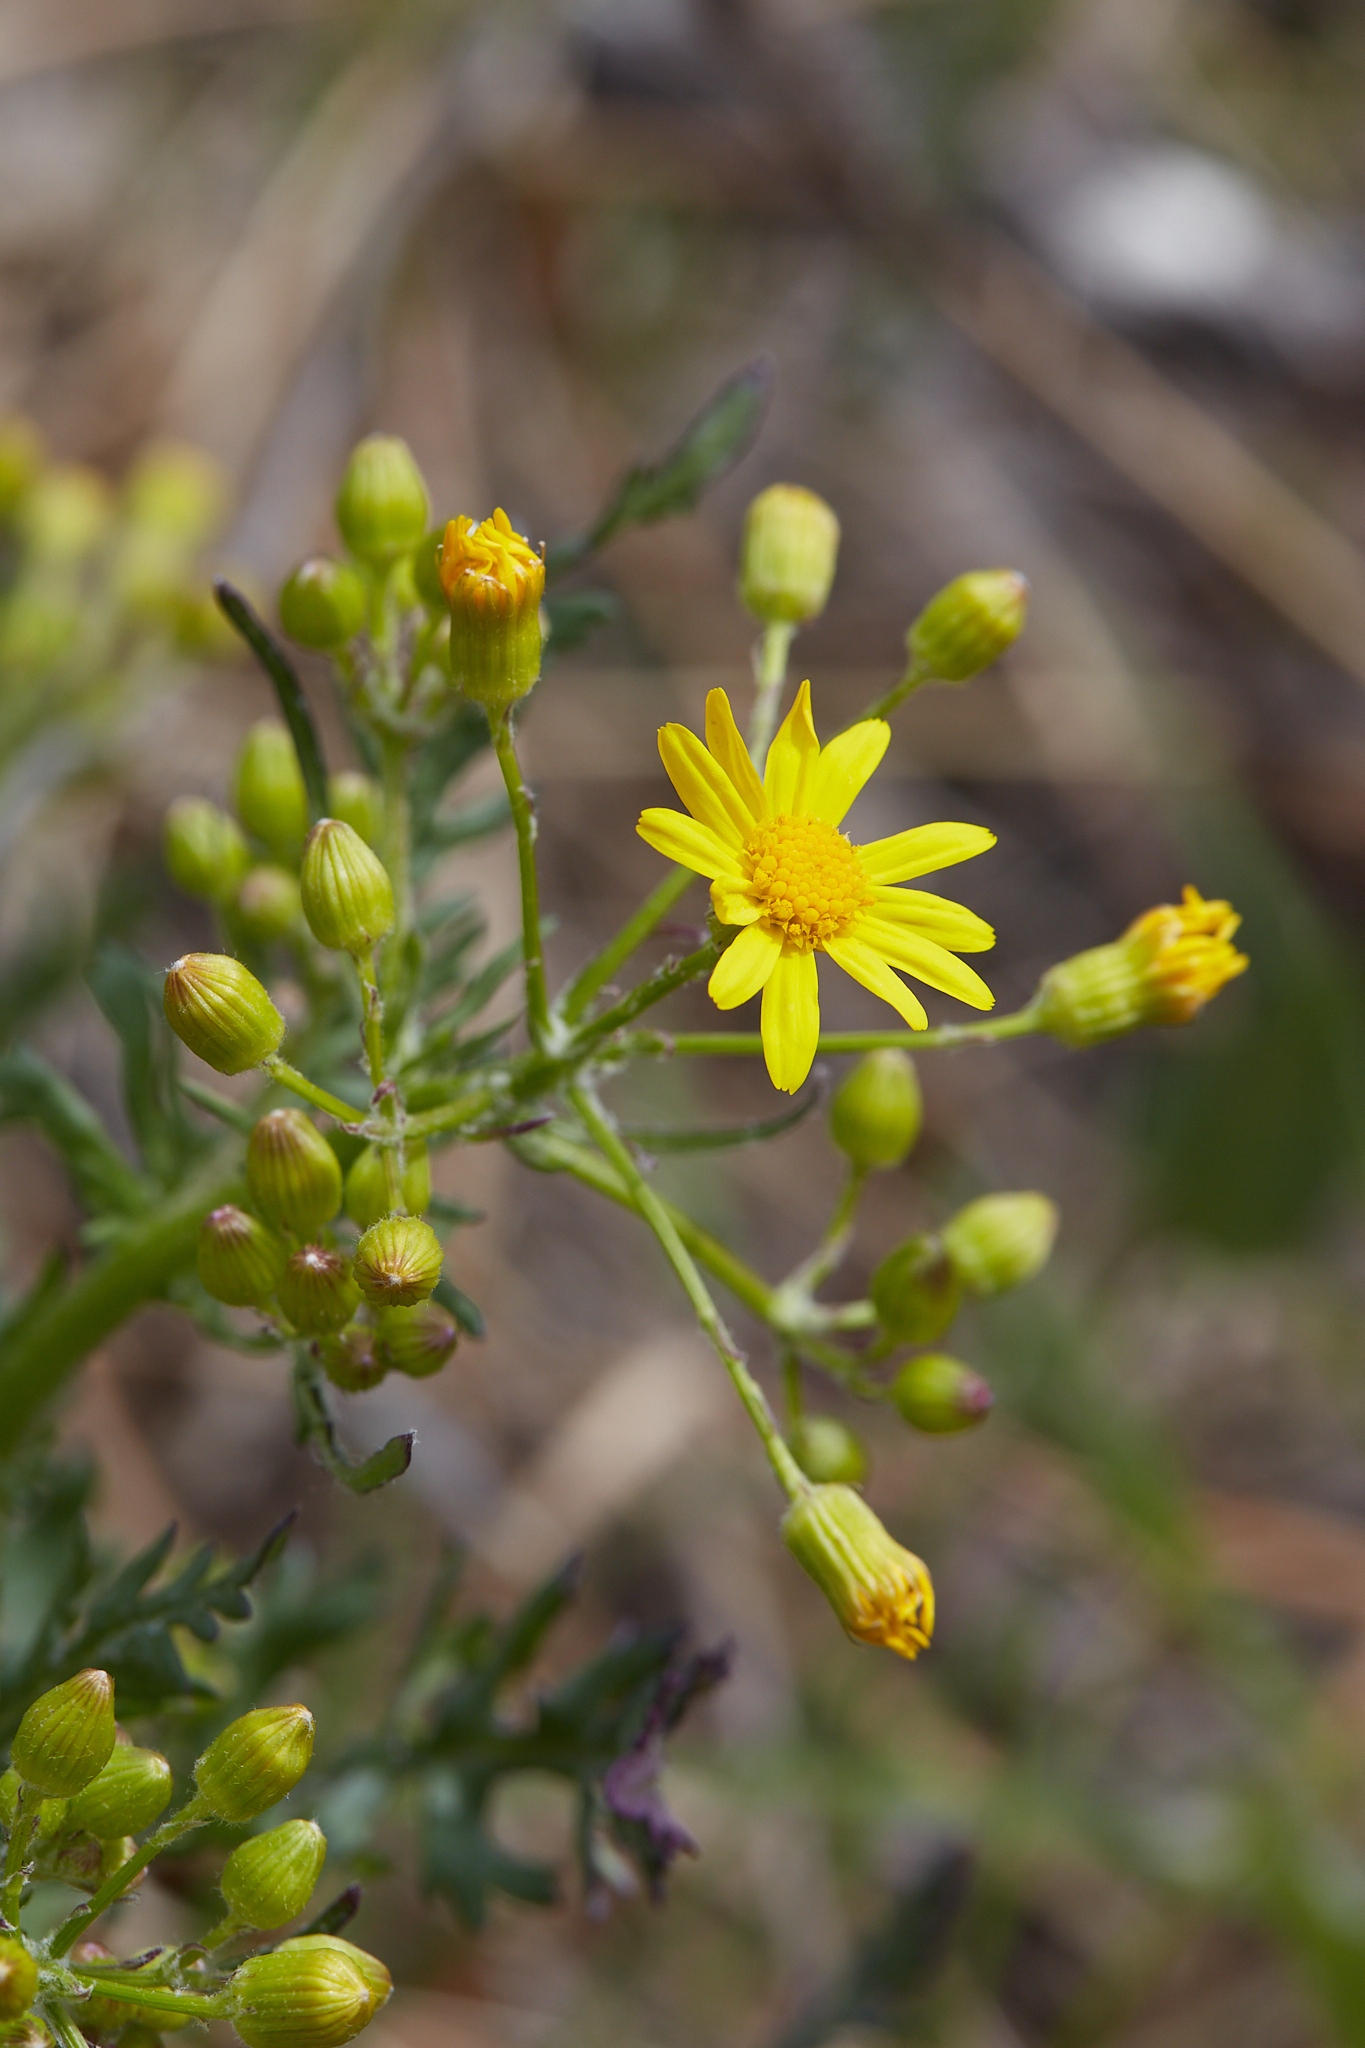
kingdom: Plantae
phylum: Tracheophyta
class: Magnoliopsida
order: Asterales
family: Asteraceae
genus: Packera
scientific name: Packera plattensis
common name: Prairie groundsel
